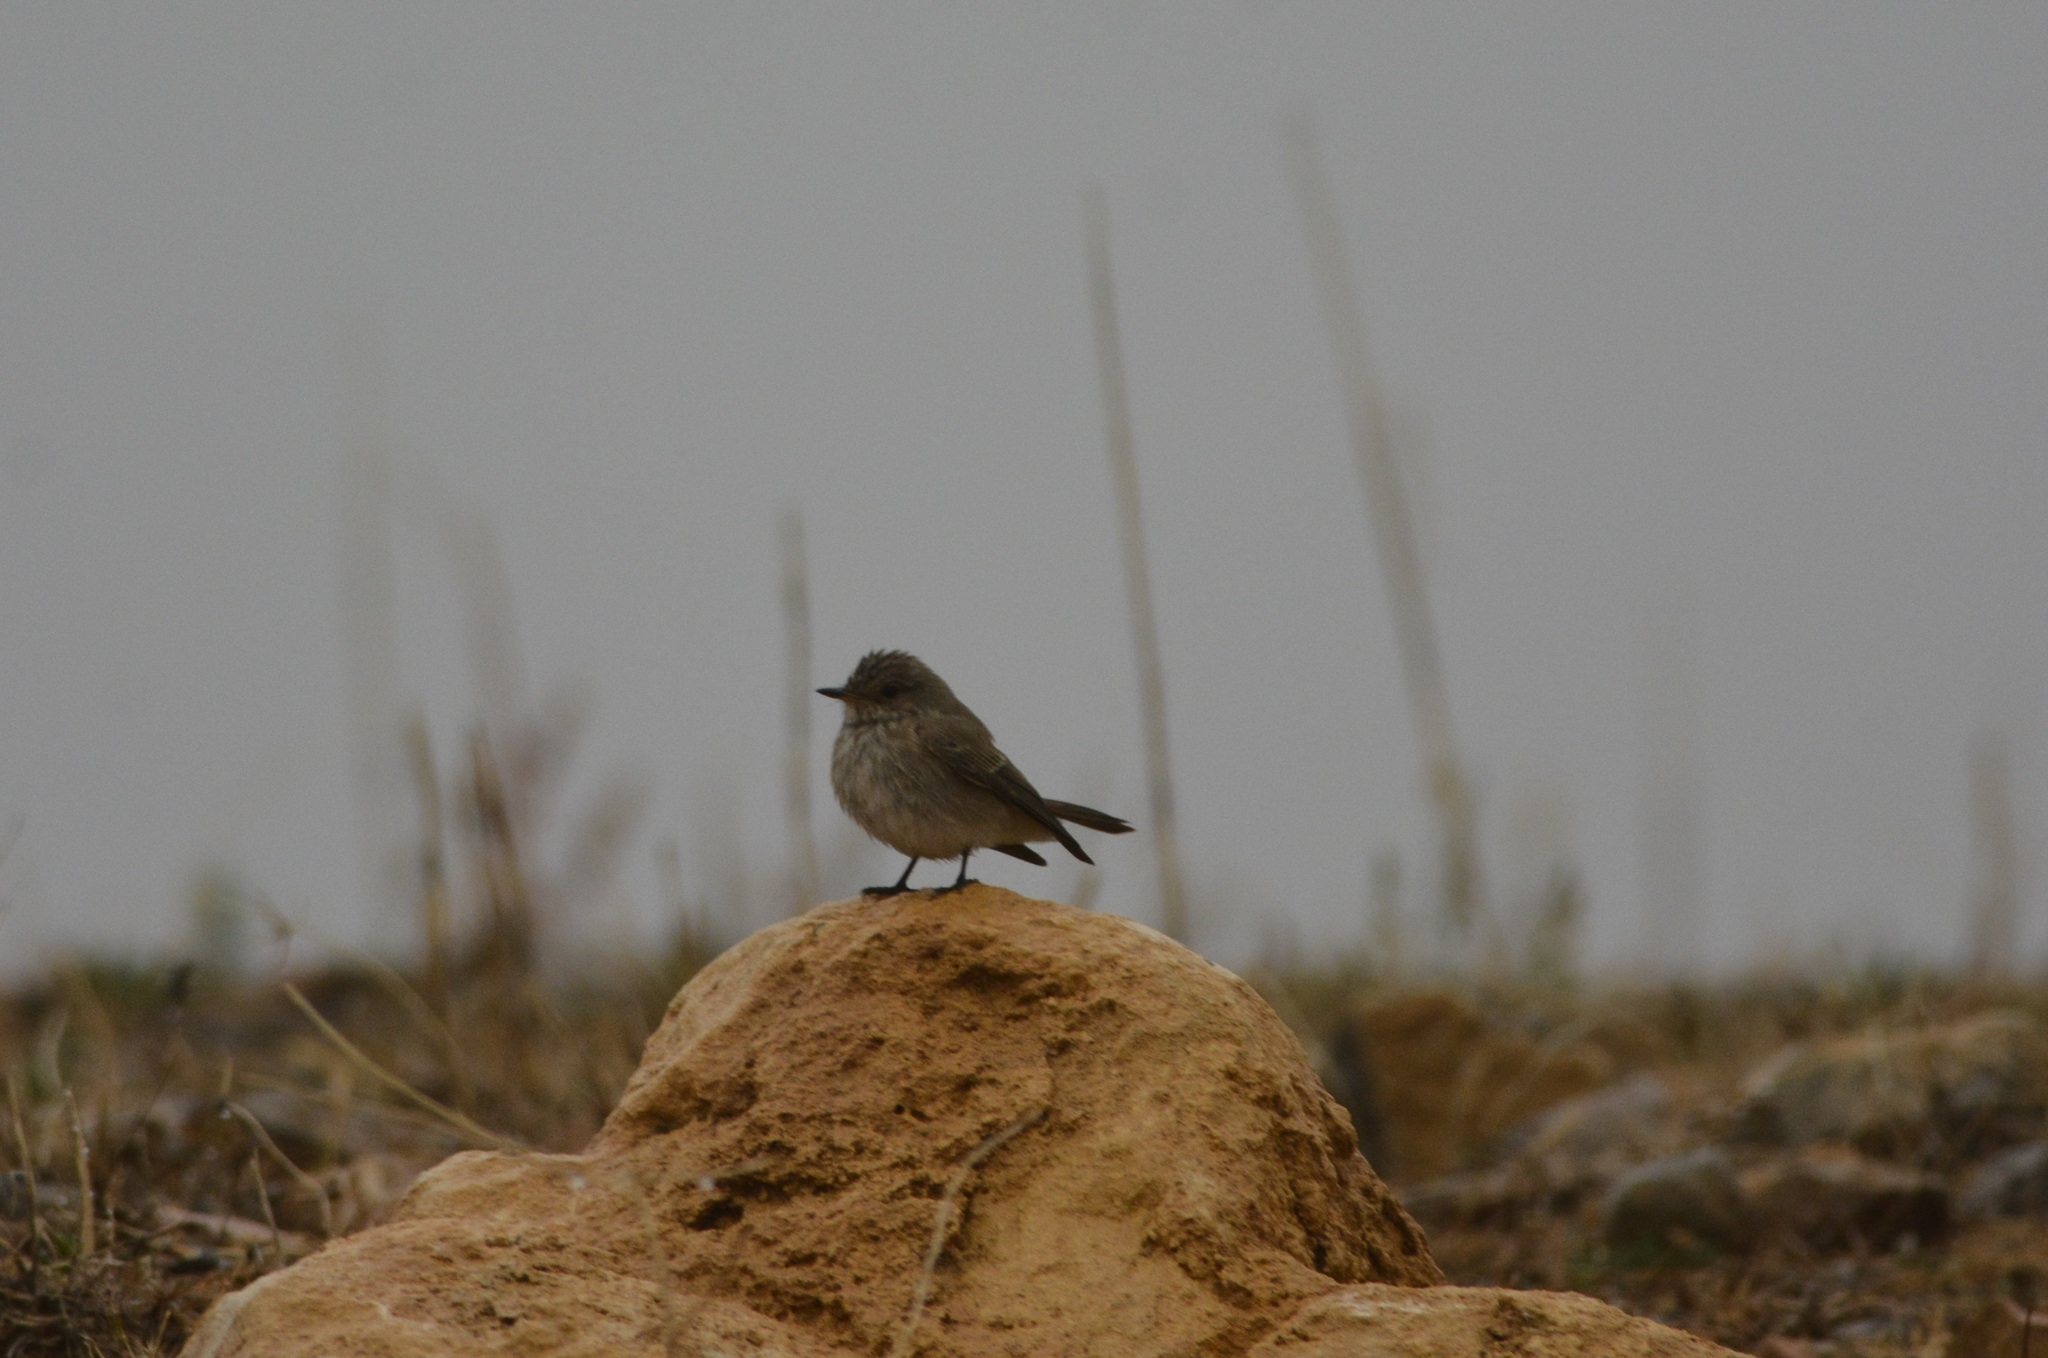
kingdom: Animalia
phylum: Chordata
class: Aves
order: Passeriformes
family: Muscicapidae
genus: Muscicapa
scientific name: Muscicapa striata
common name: Spotted flycatcher
